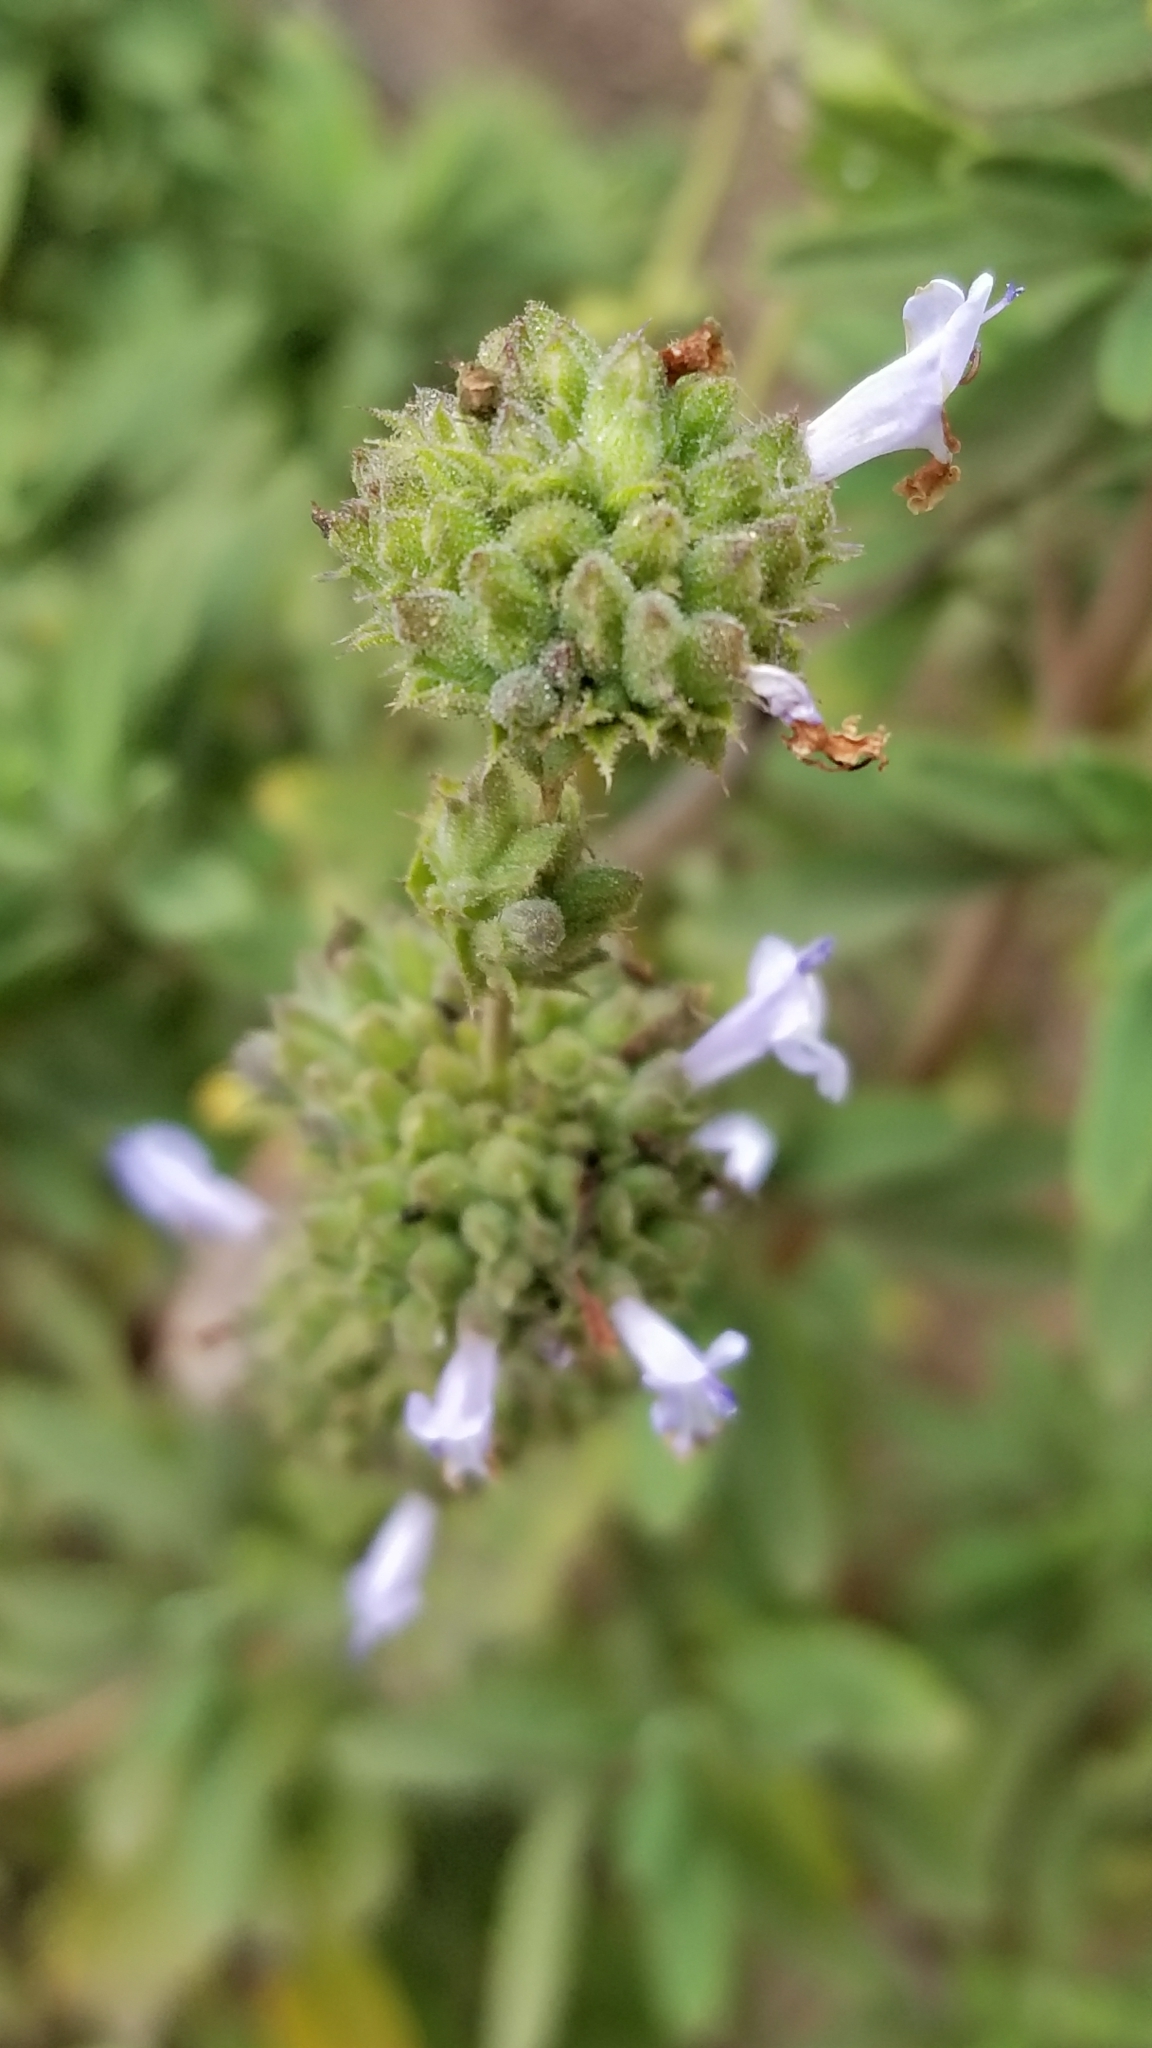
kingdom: Plantae
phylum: Tracheophyta
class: Magnoliopsida
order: Lamiales
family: Lamiaceae
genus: Salvia
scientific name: Salvia mellifera
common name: Black sage
